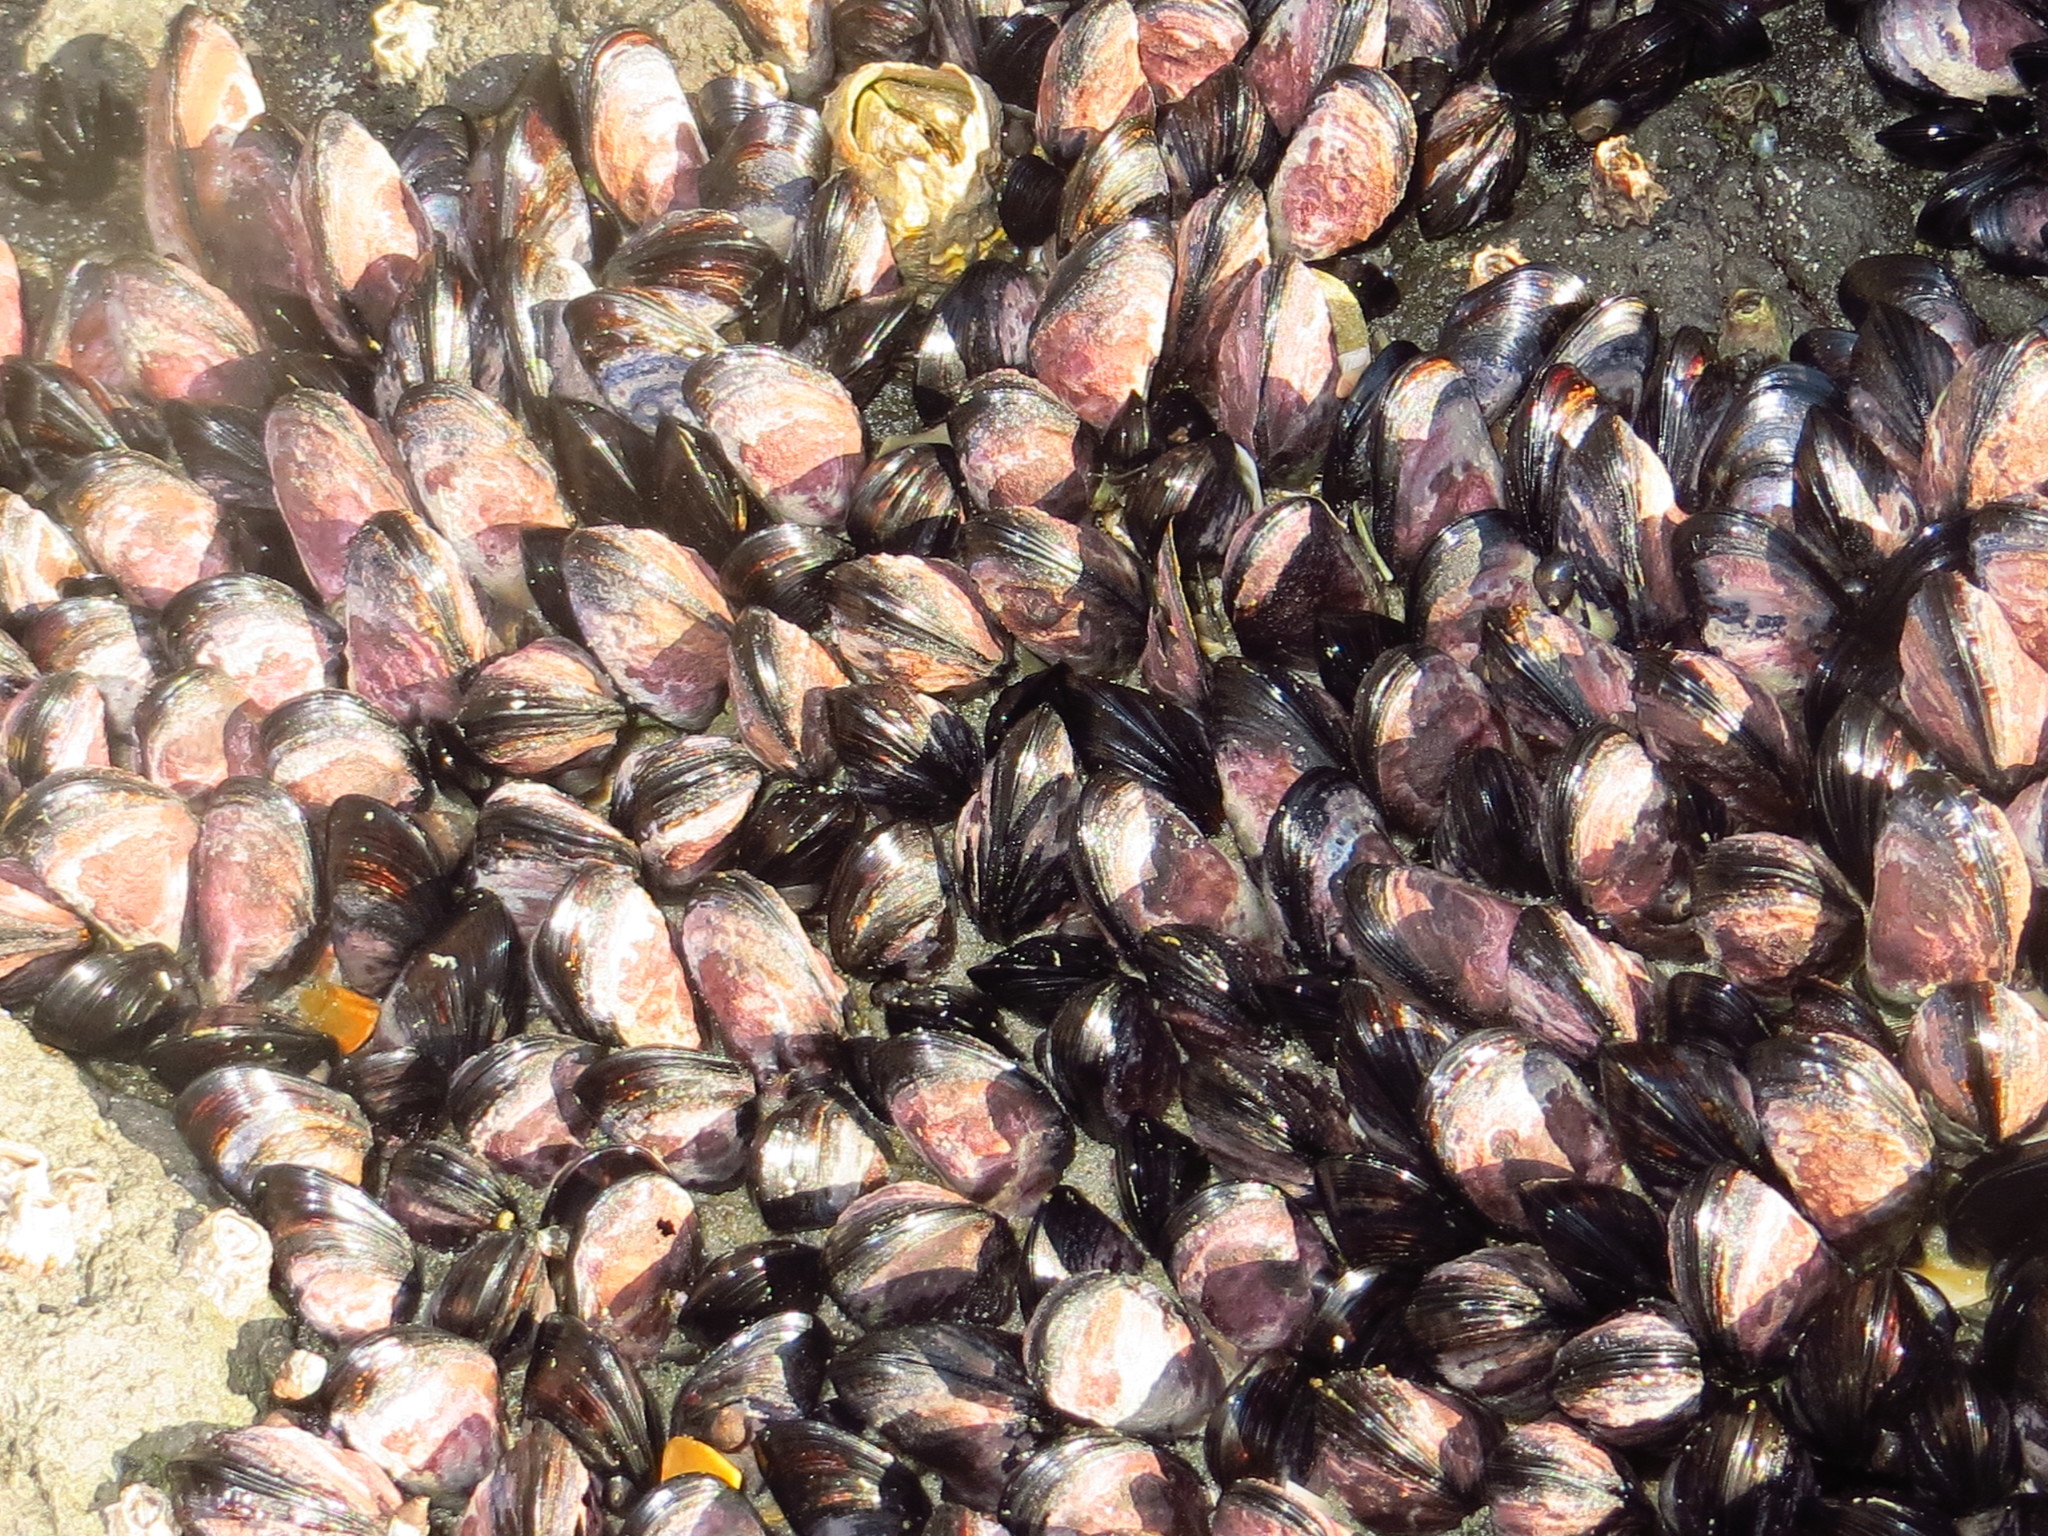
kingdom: Animalia
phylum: Mollusca
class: Bivalvia
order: Mytilida
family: Mytilidae
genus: Xenostrobus
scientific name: Xenostrobus neozelanicus
